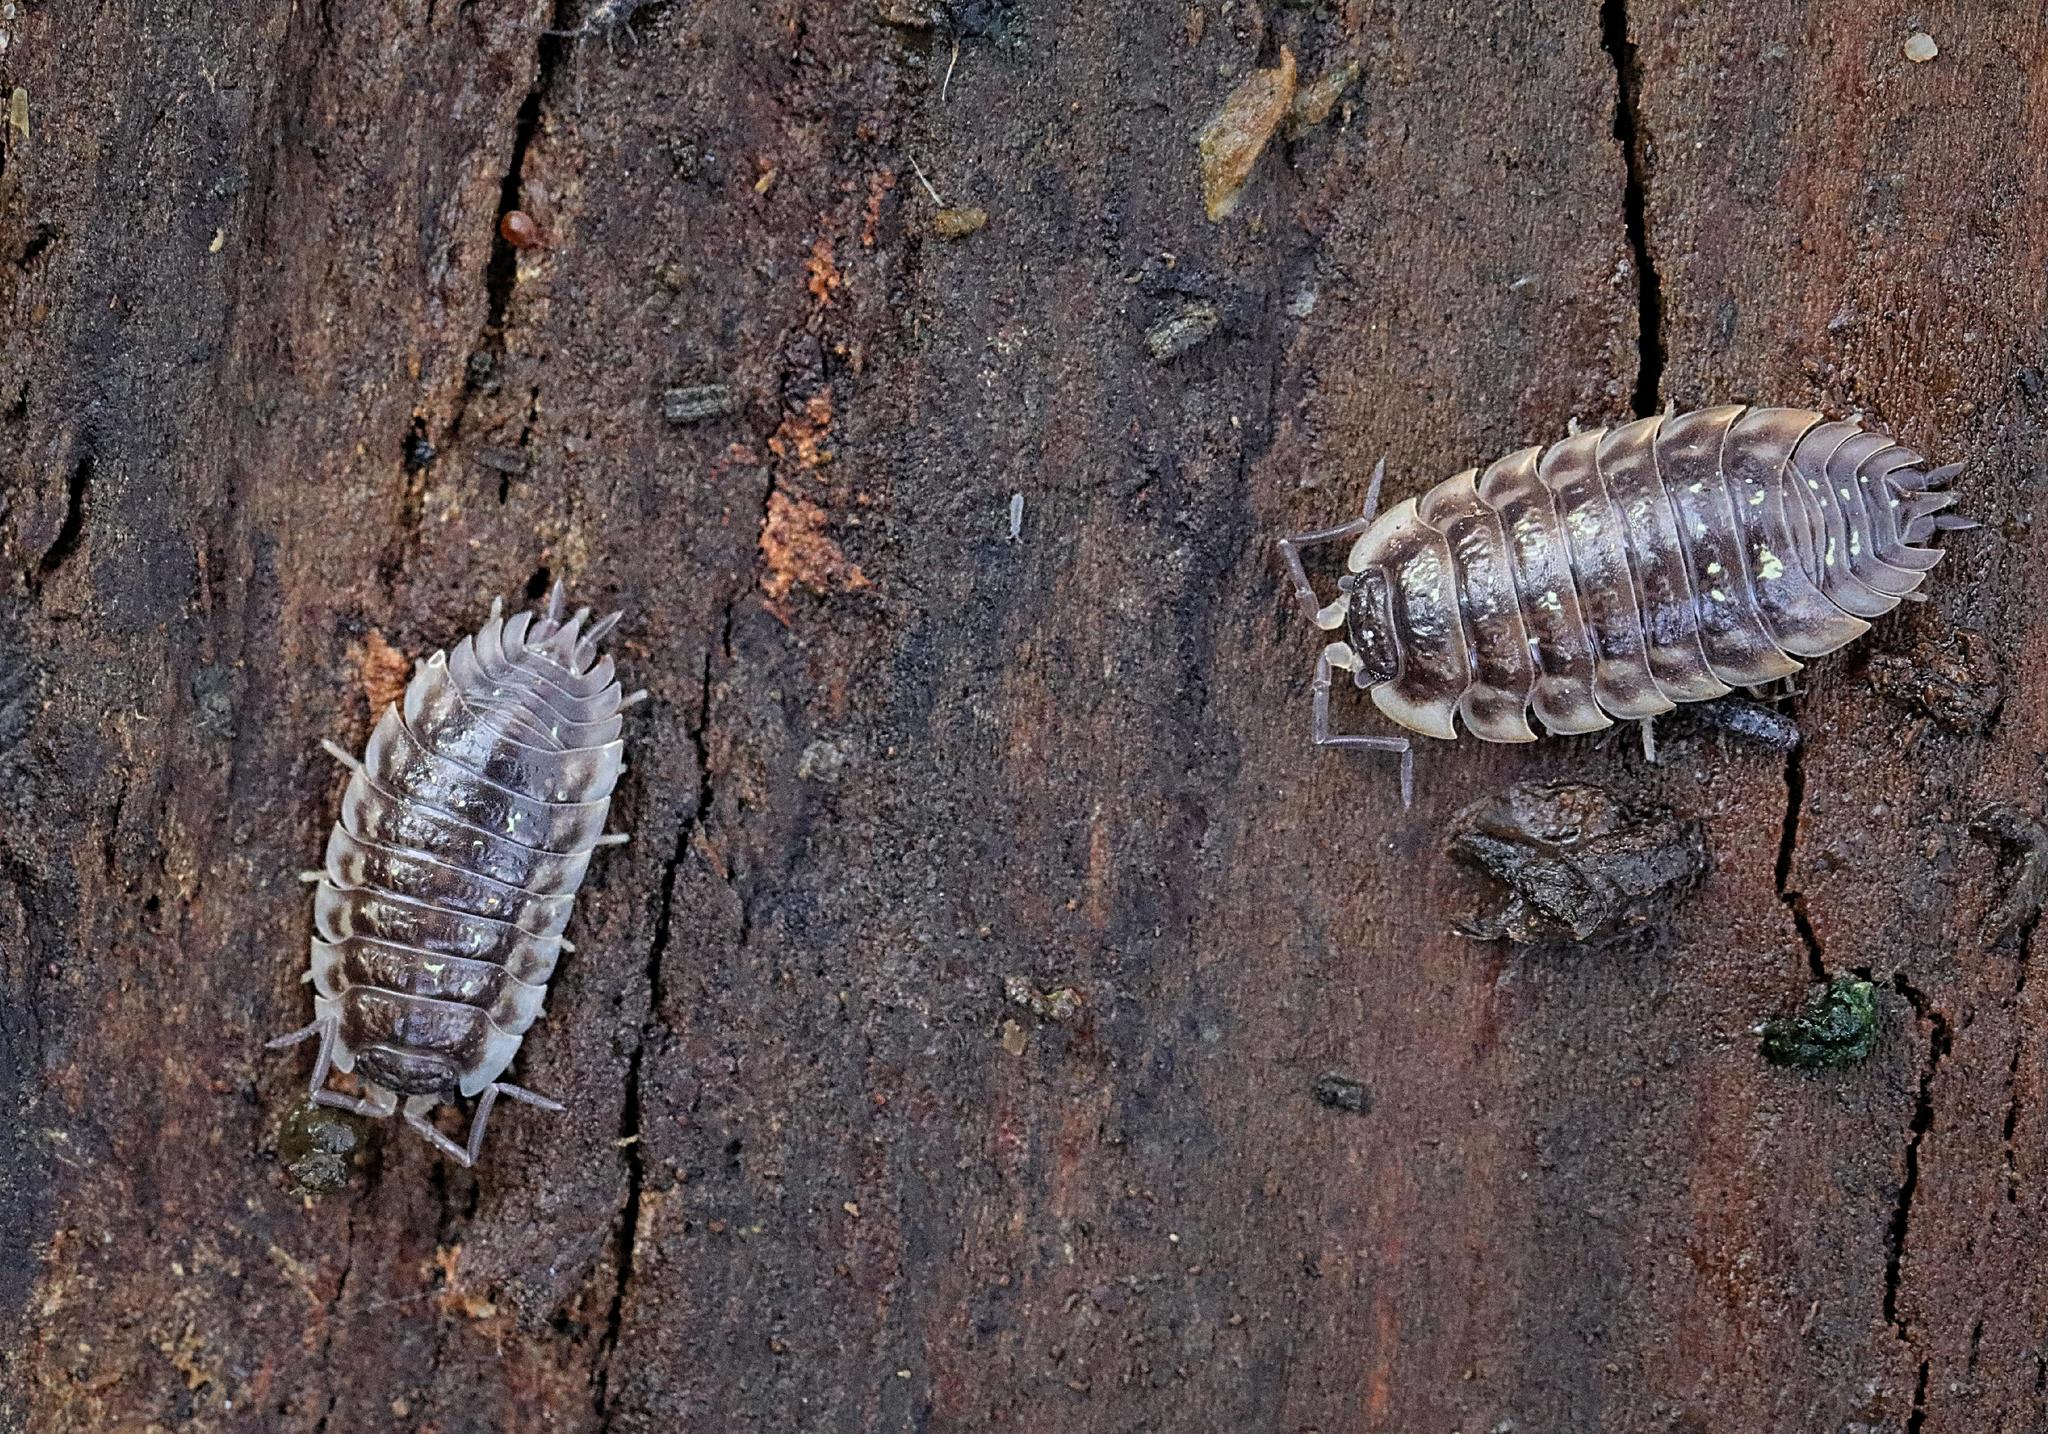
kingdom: Animalia
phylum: Arthropoda
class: Malacostraca
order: Isopoda
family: Oniscidae
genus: Oniscus
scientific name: Oniscus asellus
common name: Common shiny woodlouse
